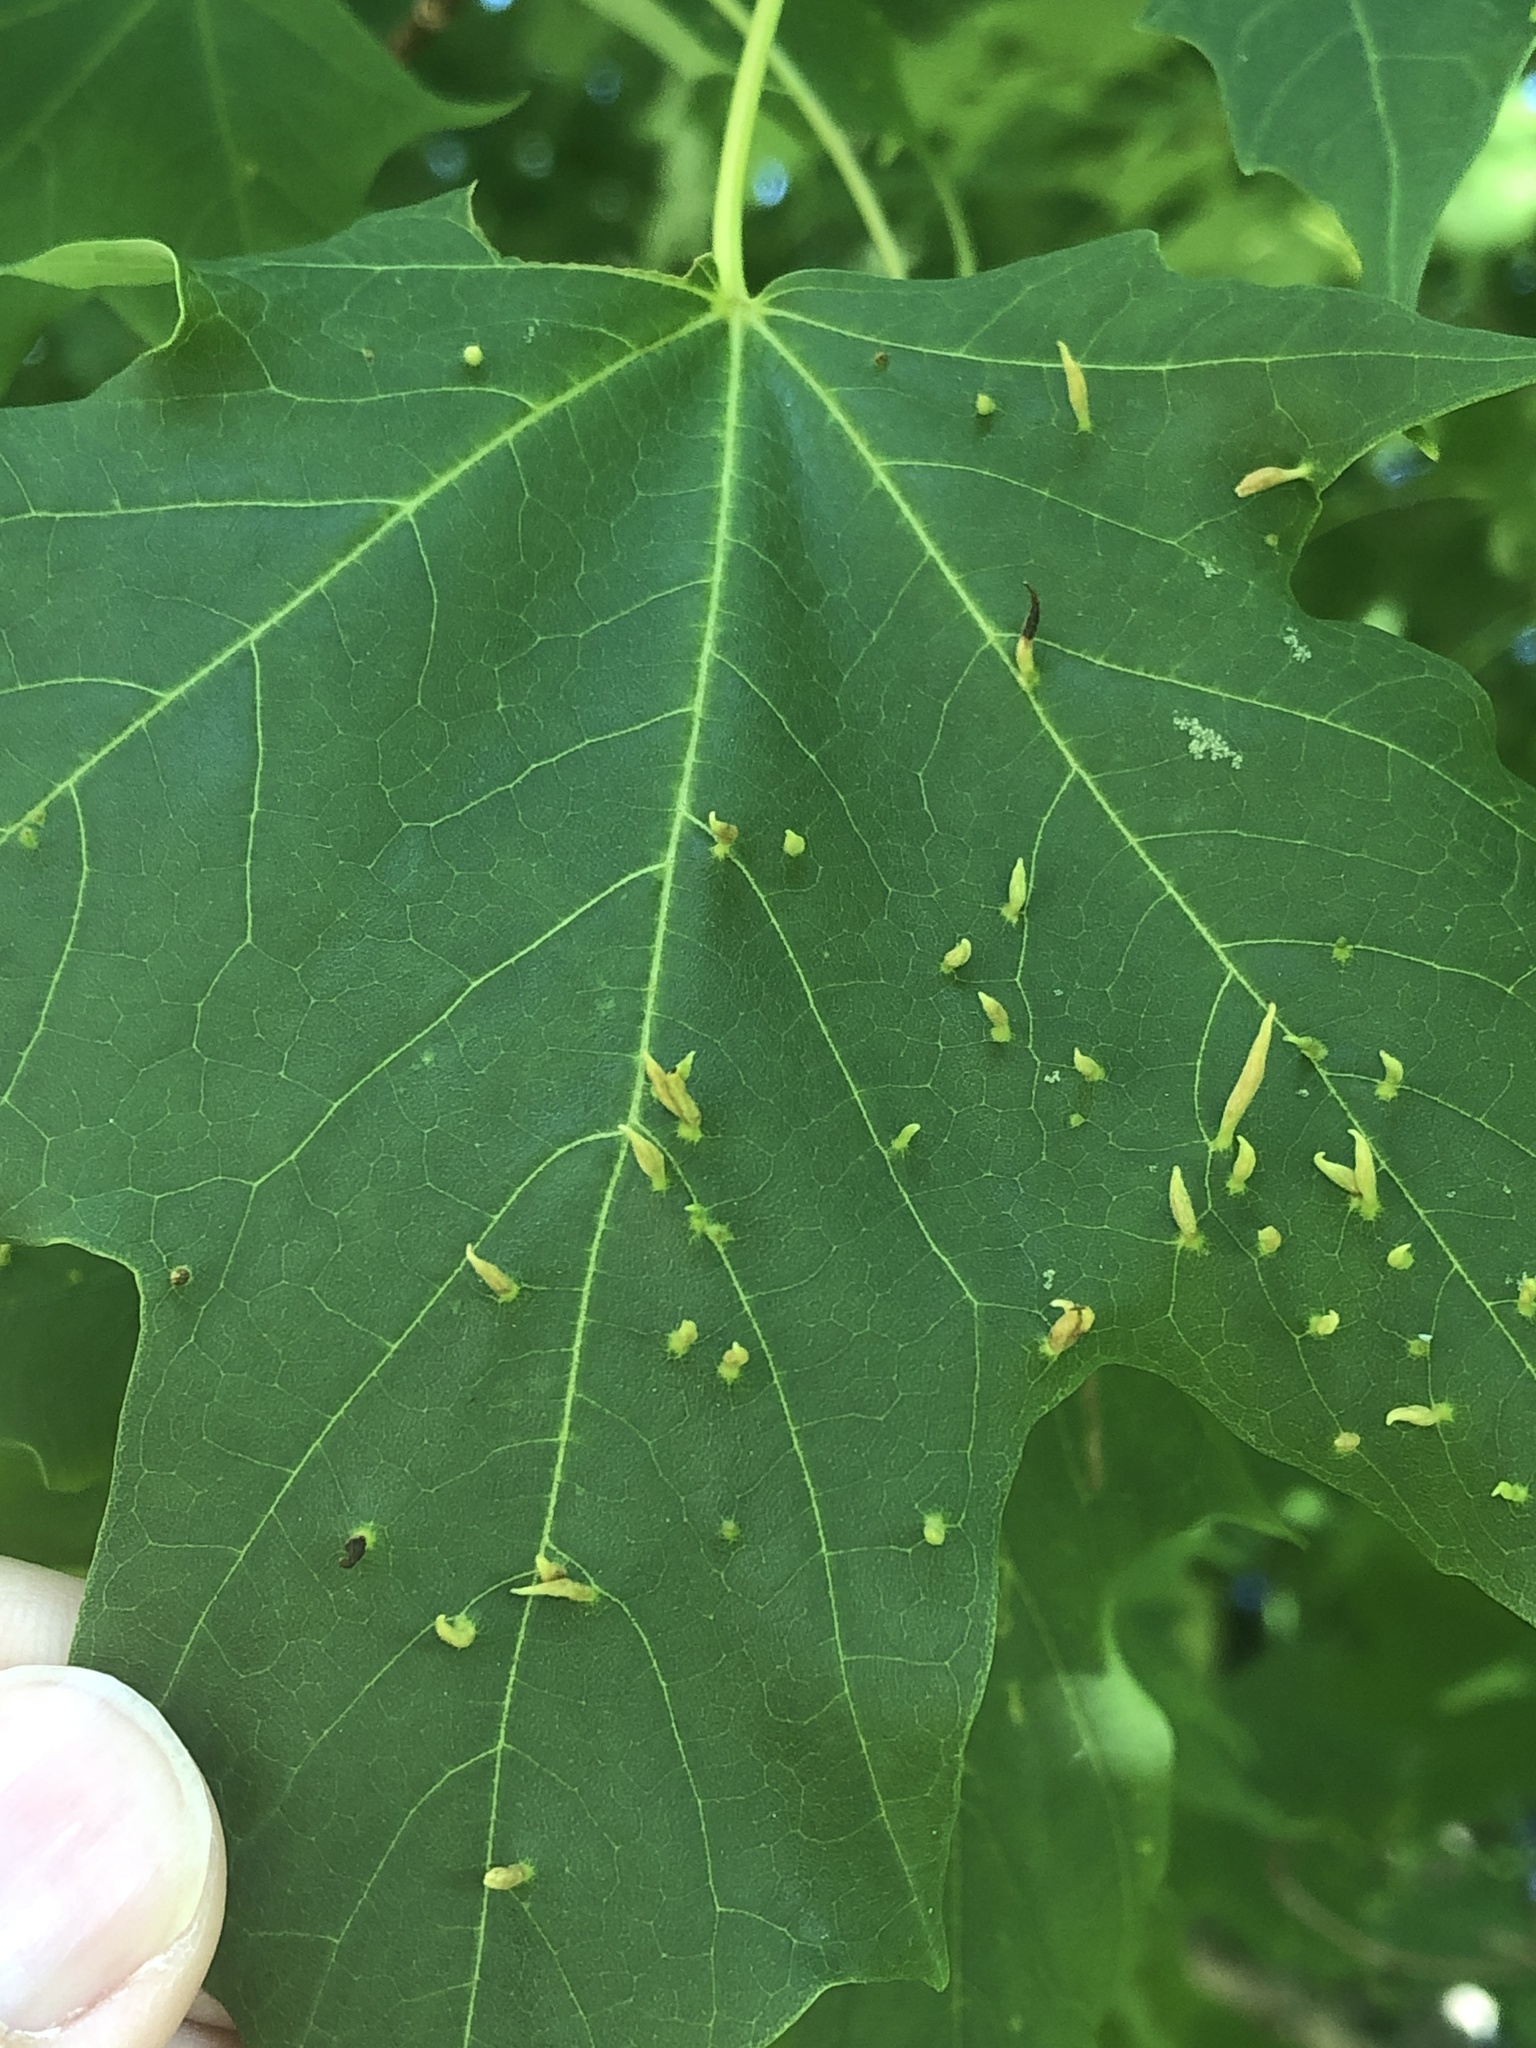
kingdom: Animalia
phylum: Arthropoda
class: Arachnida
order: Trombidiformes
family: Eriophyidae
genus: Vasates
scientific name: Vasates aceriscrumena
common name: Maple spindle gall mite
